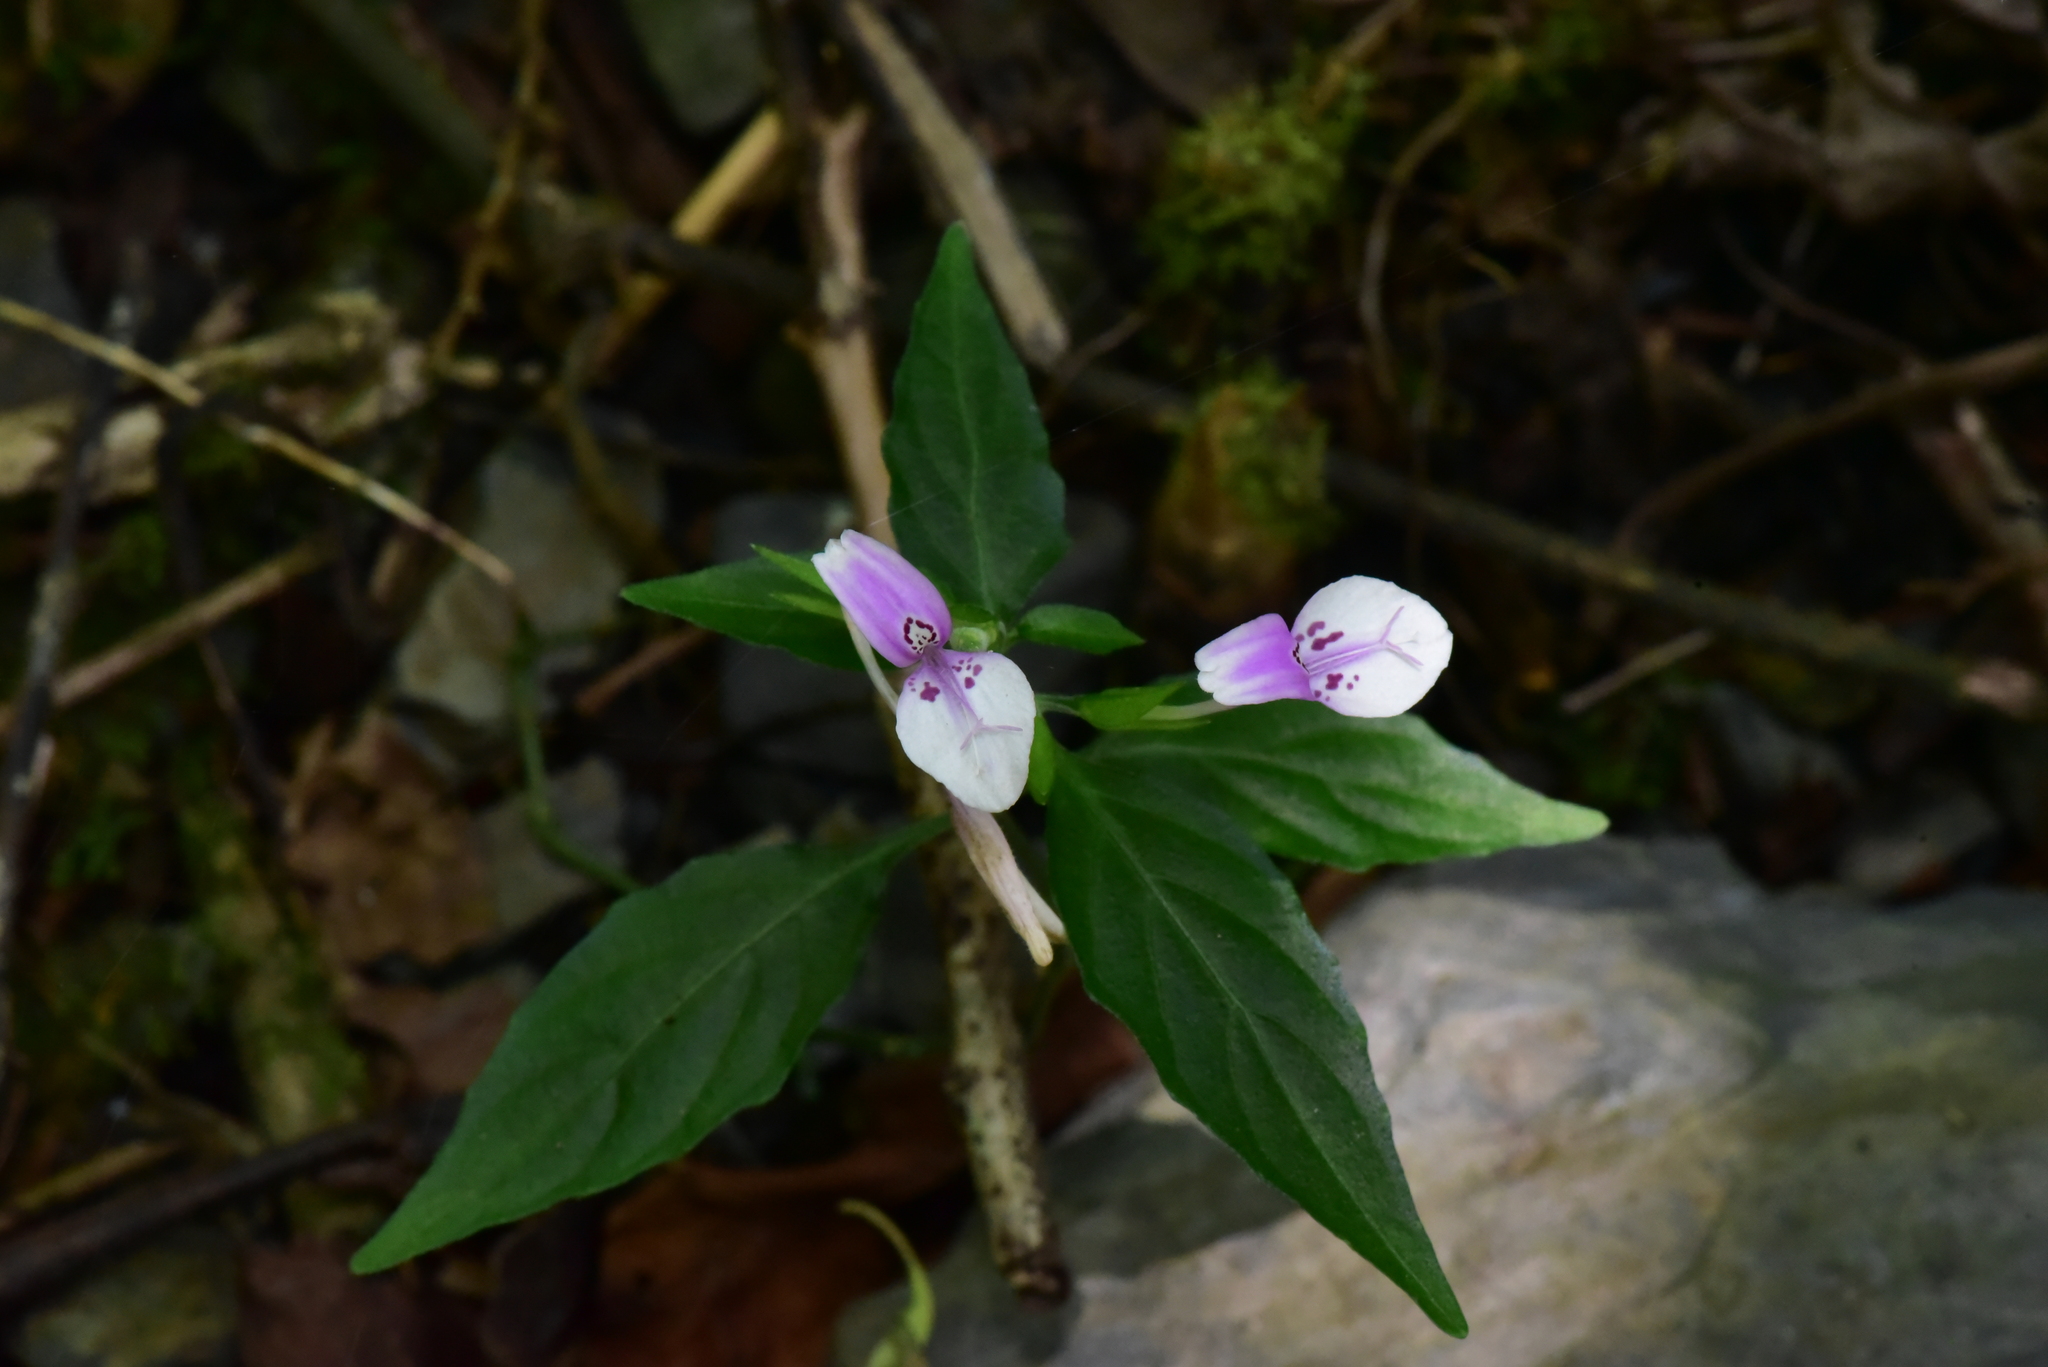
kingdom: Plantae
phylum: Tracheophyta
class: Magnoliopsida
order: Lamiales
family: Acanthaceae
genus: Dicliptera
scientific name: Dicliptera japonica
